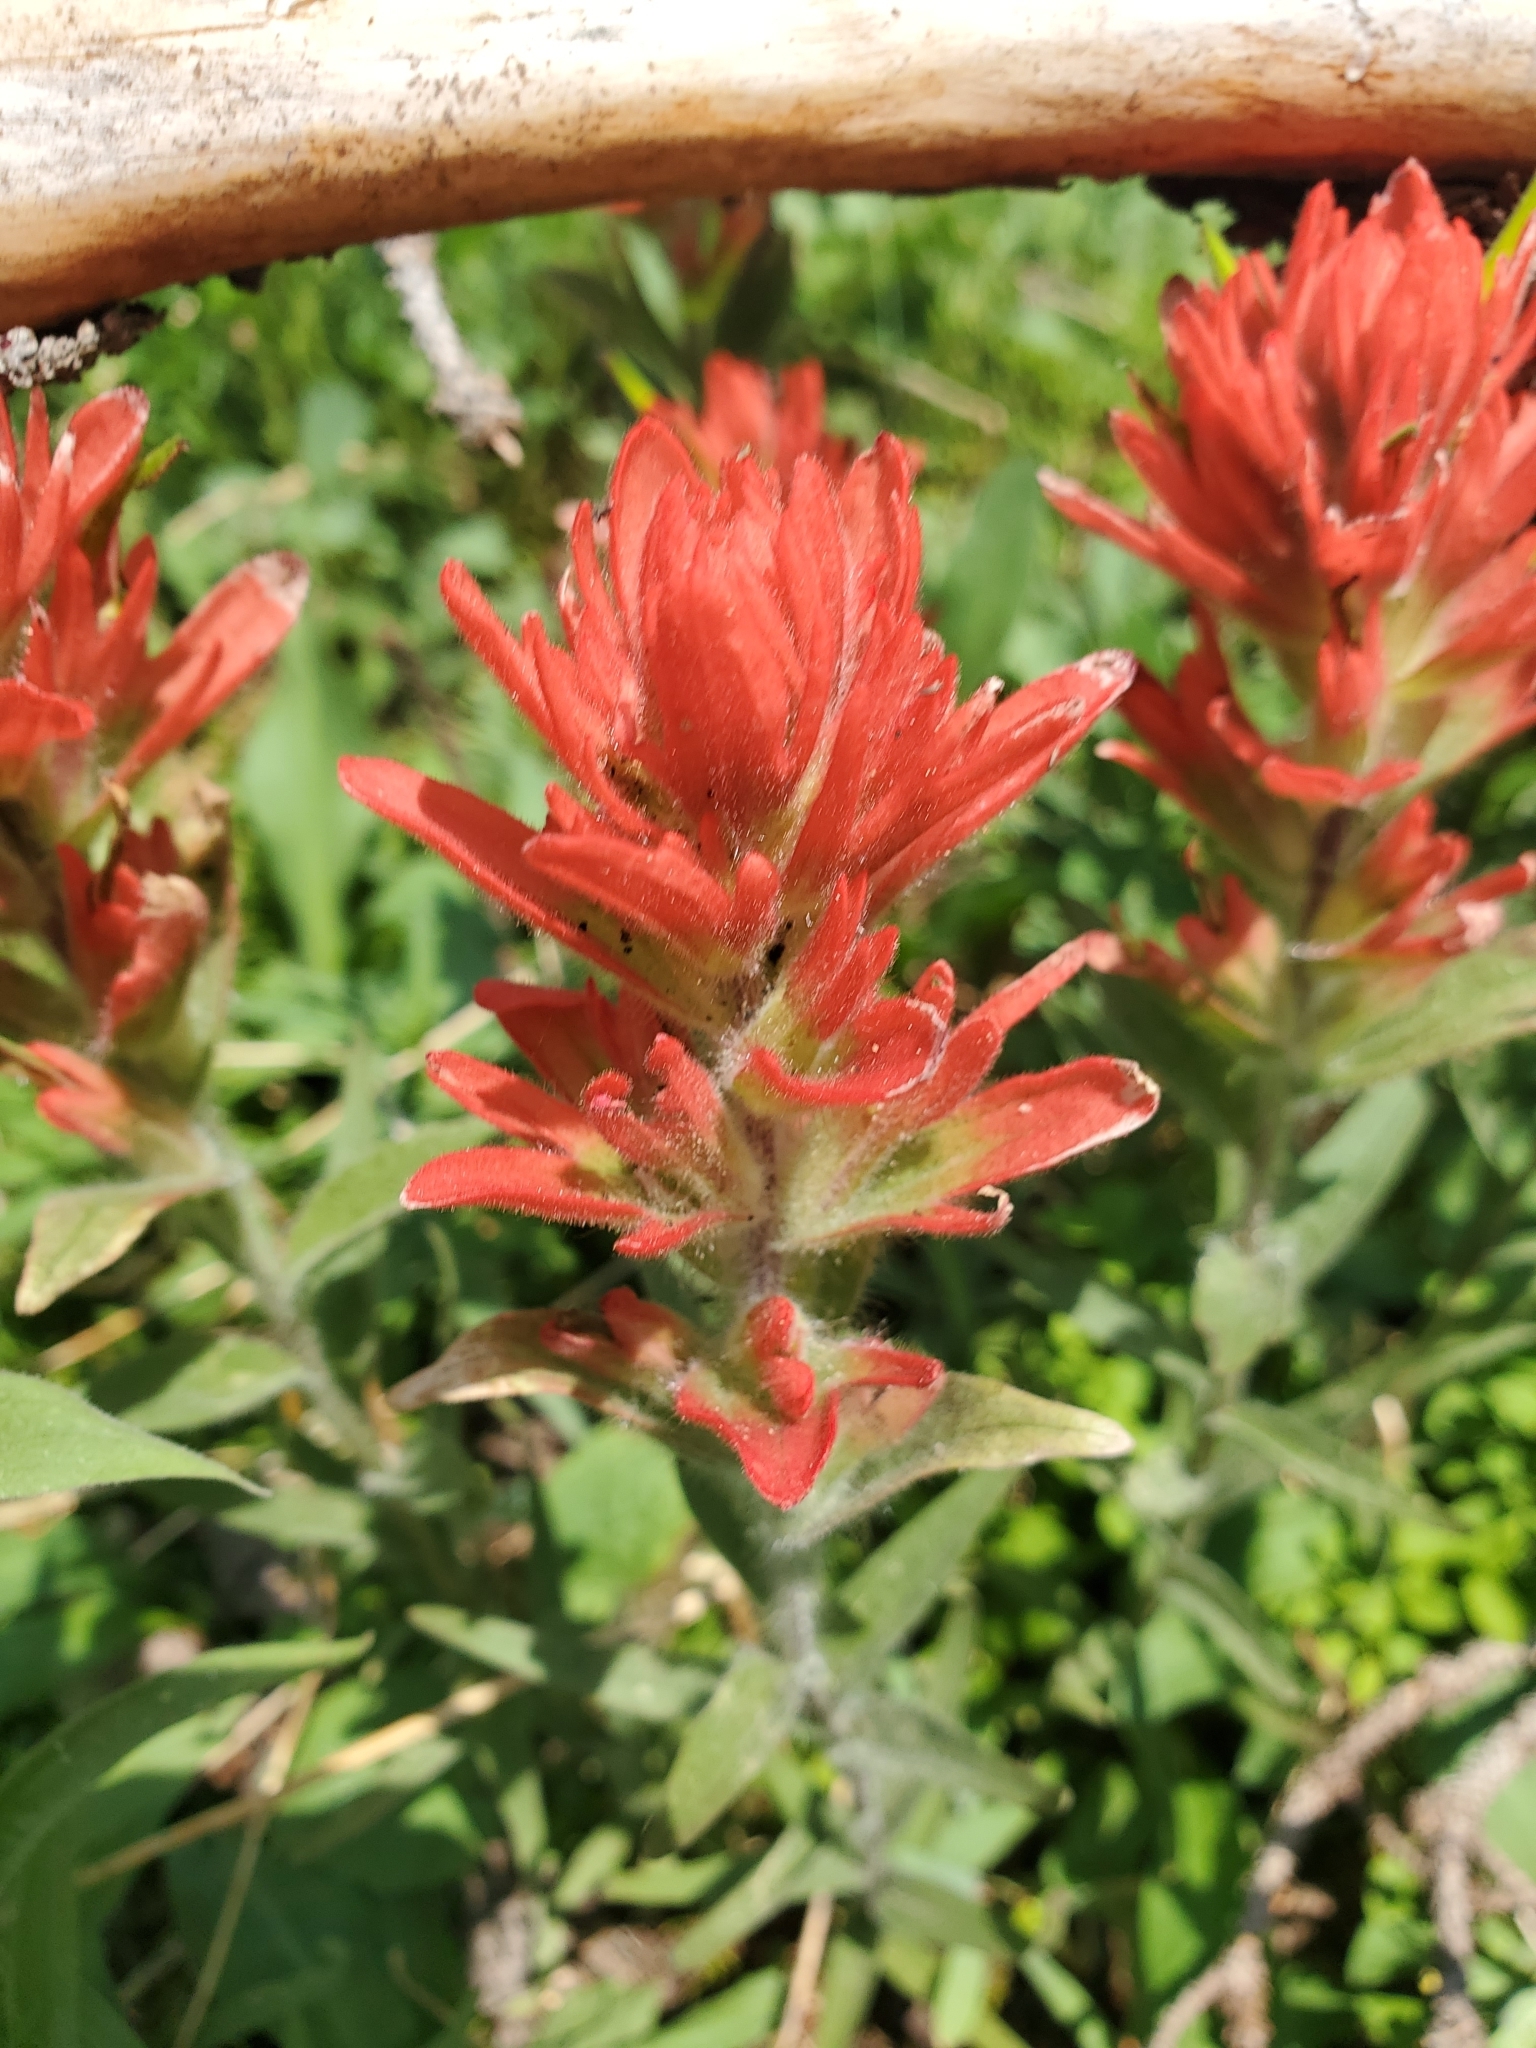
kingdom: Plantae
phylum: Tracheophyta
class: Magnoliopsida
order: Lamiales
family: Orobanchaceae
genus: Castilleja
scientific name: Castilleja miniata
